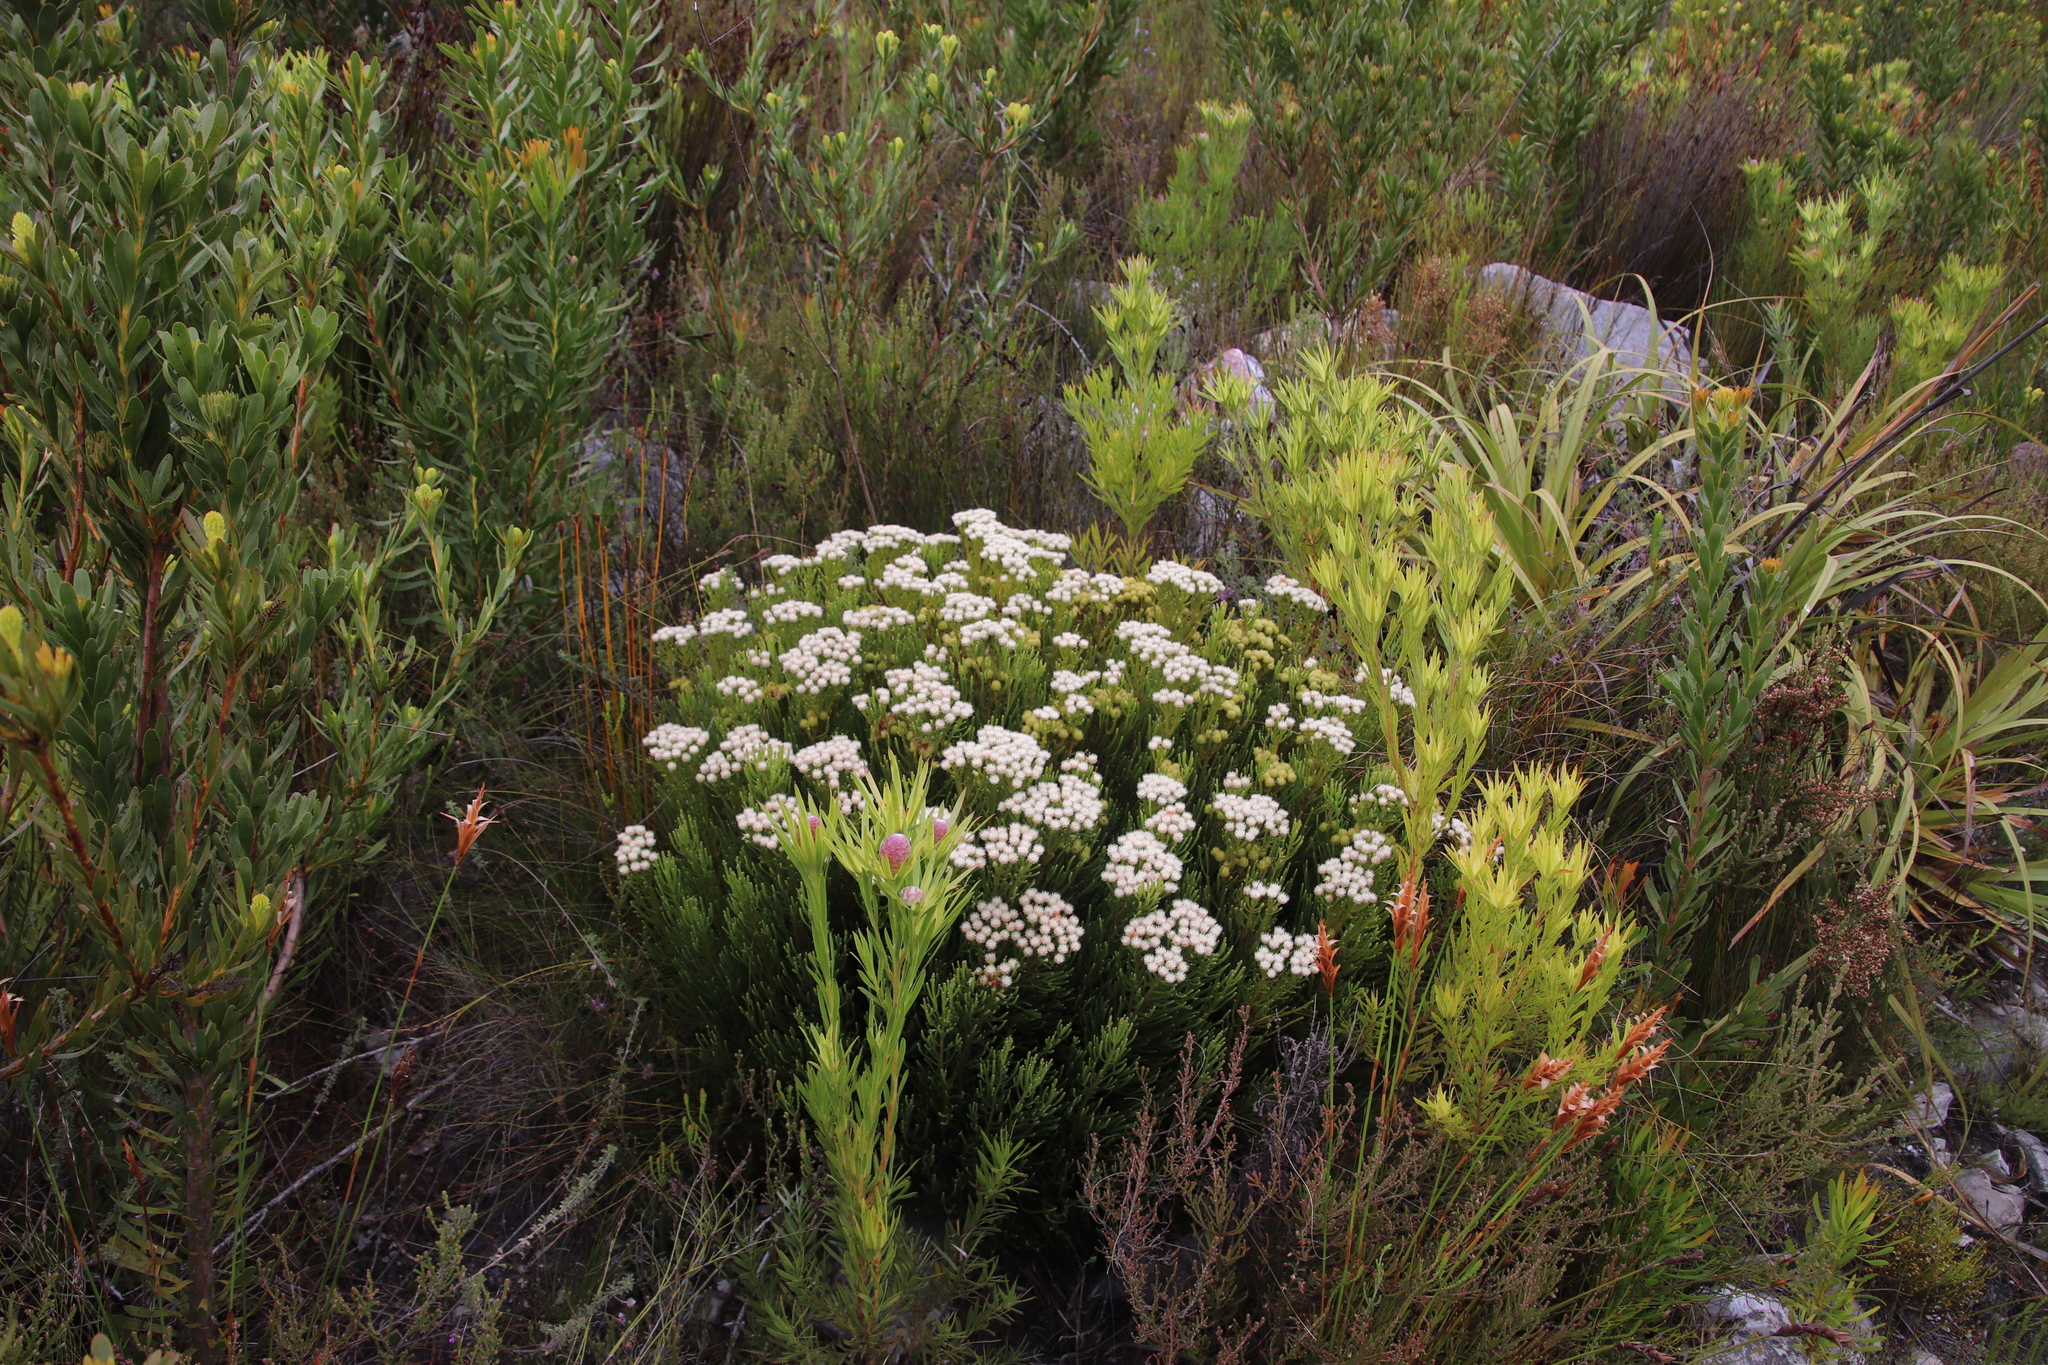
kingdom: Plantae
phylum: Tracheophyta
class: Magnoliopsida
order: Bruniales
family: Bruniaceae
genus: Brunia
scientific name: Brunia paleacea
